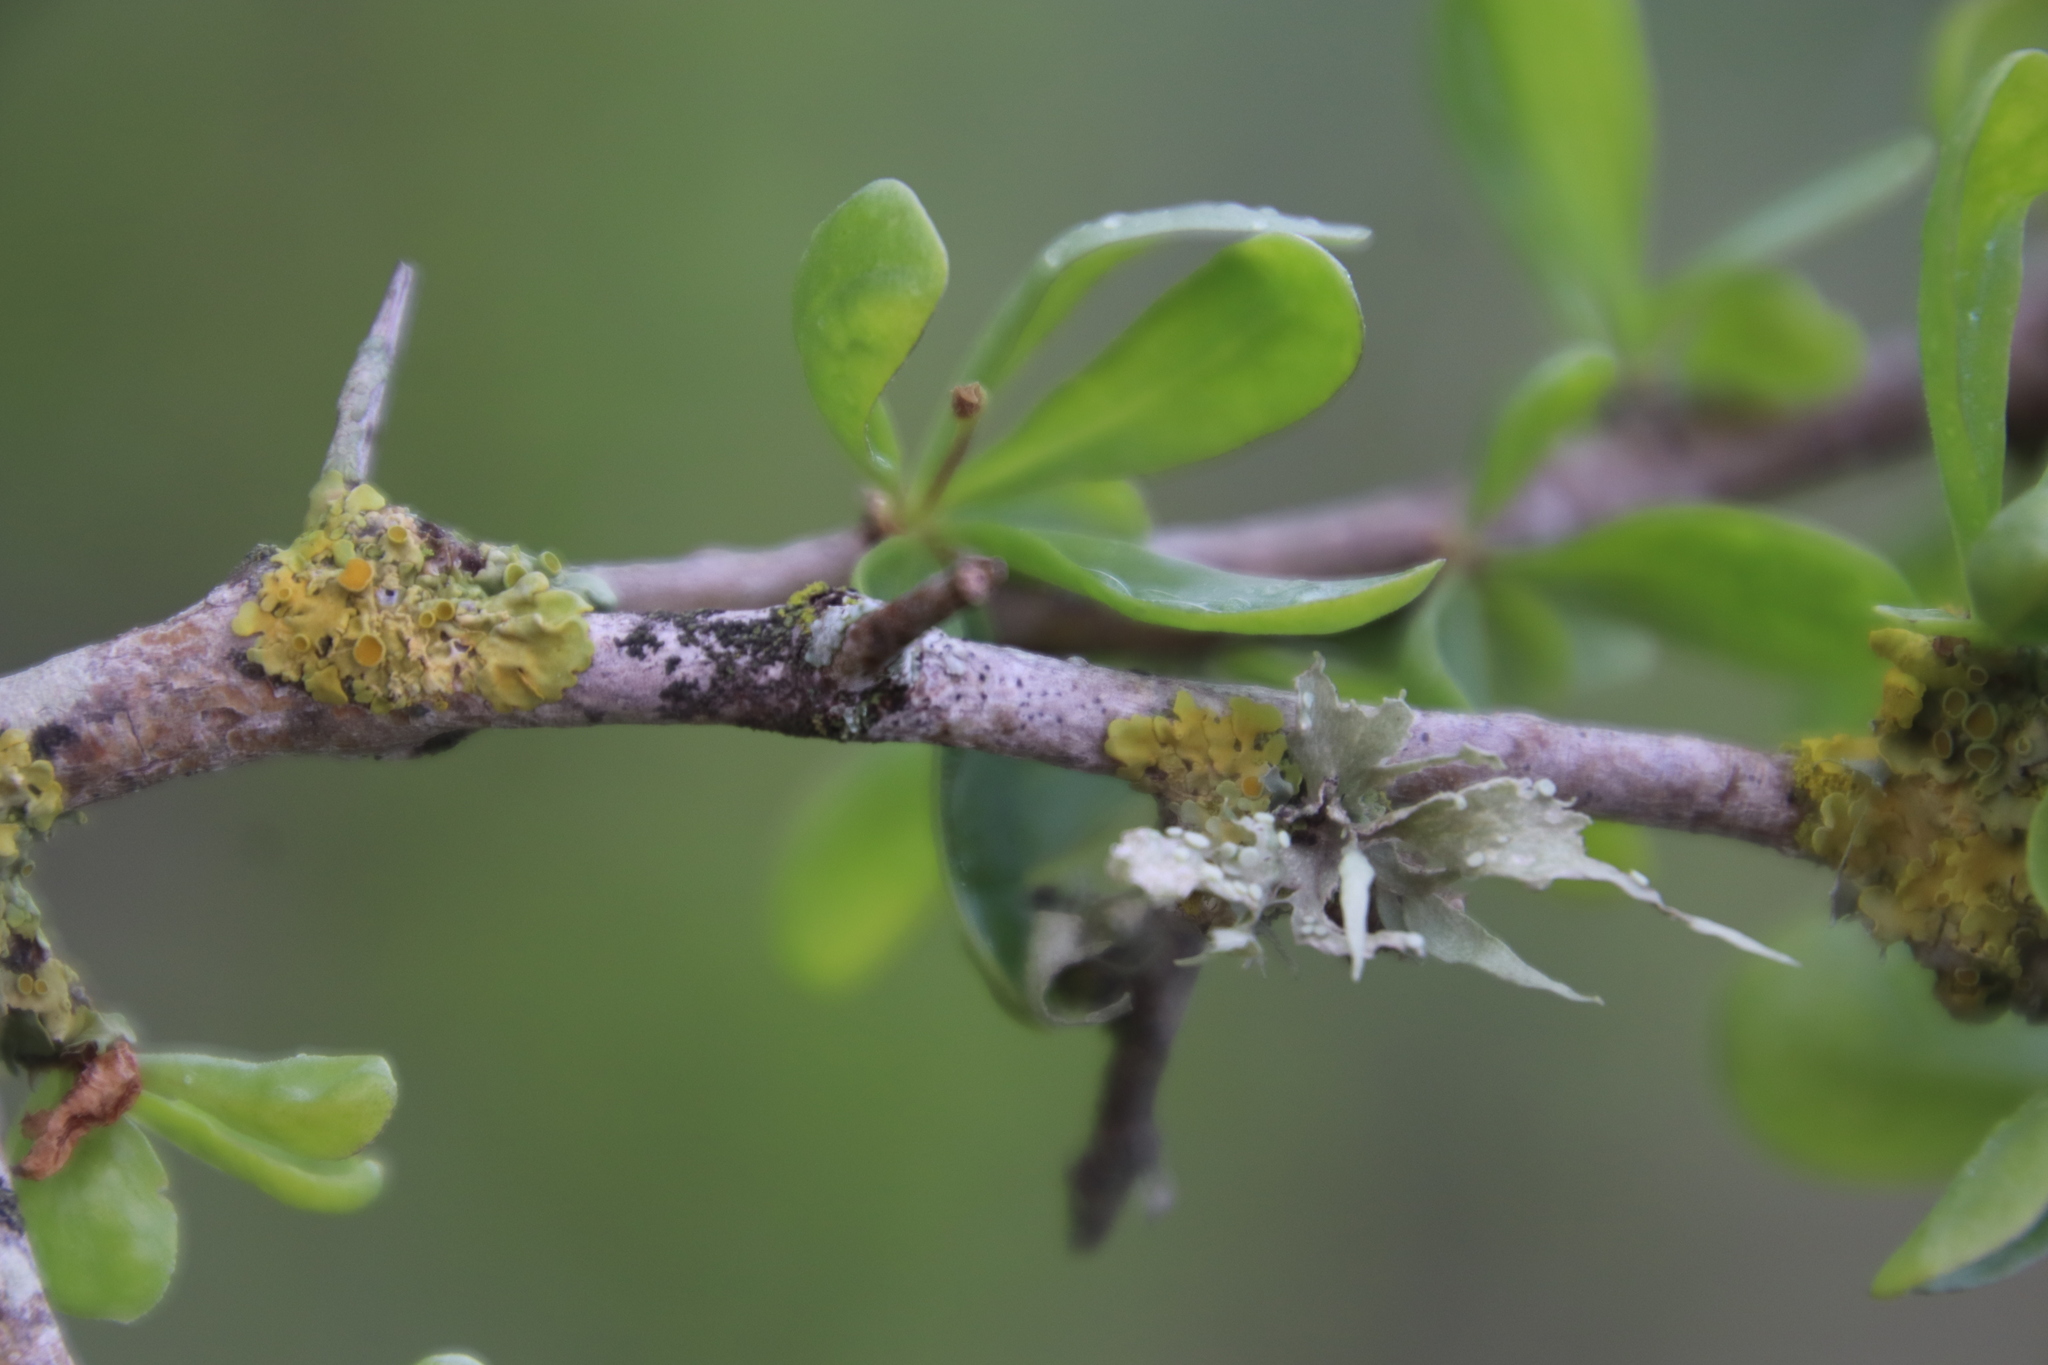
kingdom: Fungi
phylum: Ascomycota
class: Lecanoromycetes
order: Lecanorales
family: Ramalinaceae
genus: Ramalina
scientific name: Ramalina celastri
